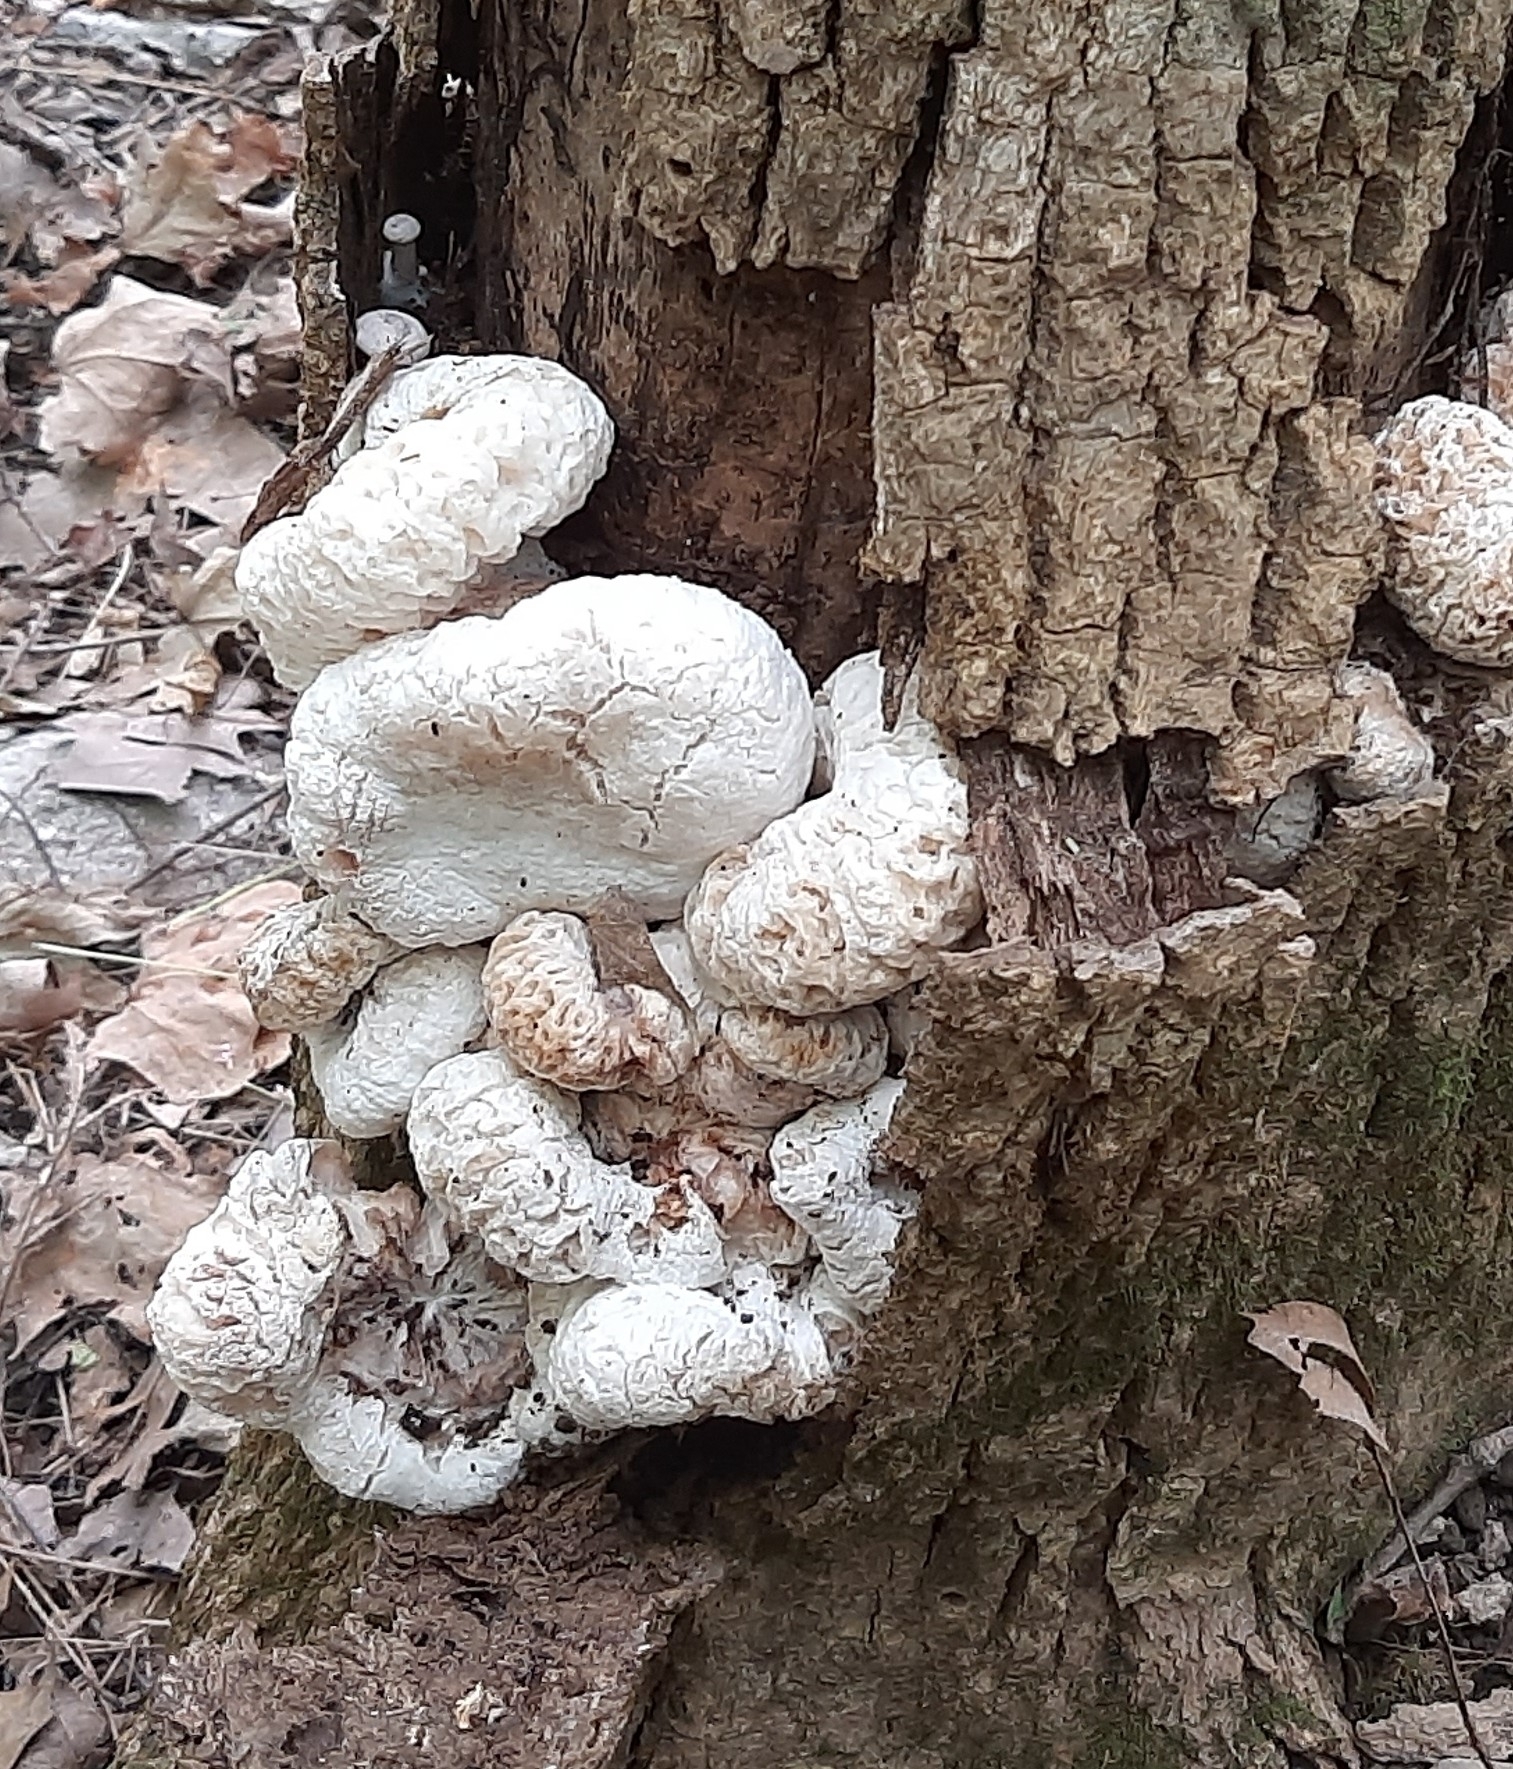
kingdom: Fungi
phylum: Basidiomycota
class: Agaricomycetes
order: Agaricales
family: Entolomataceae
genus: Entoloma
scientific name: Entoloma abortivum
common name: Aborted entoloma
